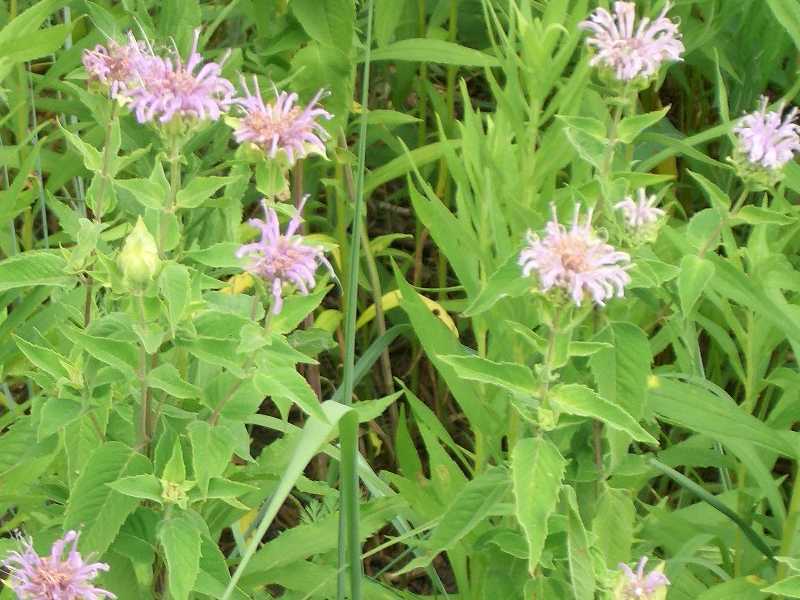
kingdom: Plantae
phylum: Tracheophyta
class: Magnoliopsida
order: Lamiales
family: Lamiaceae
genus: Monarda
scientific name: Monarda fistulosa
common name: Purple beebalm
